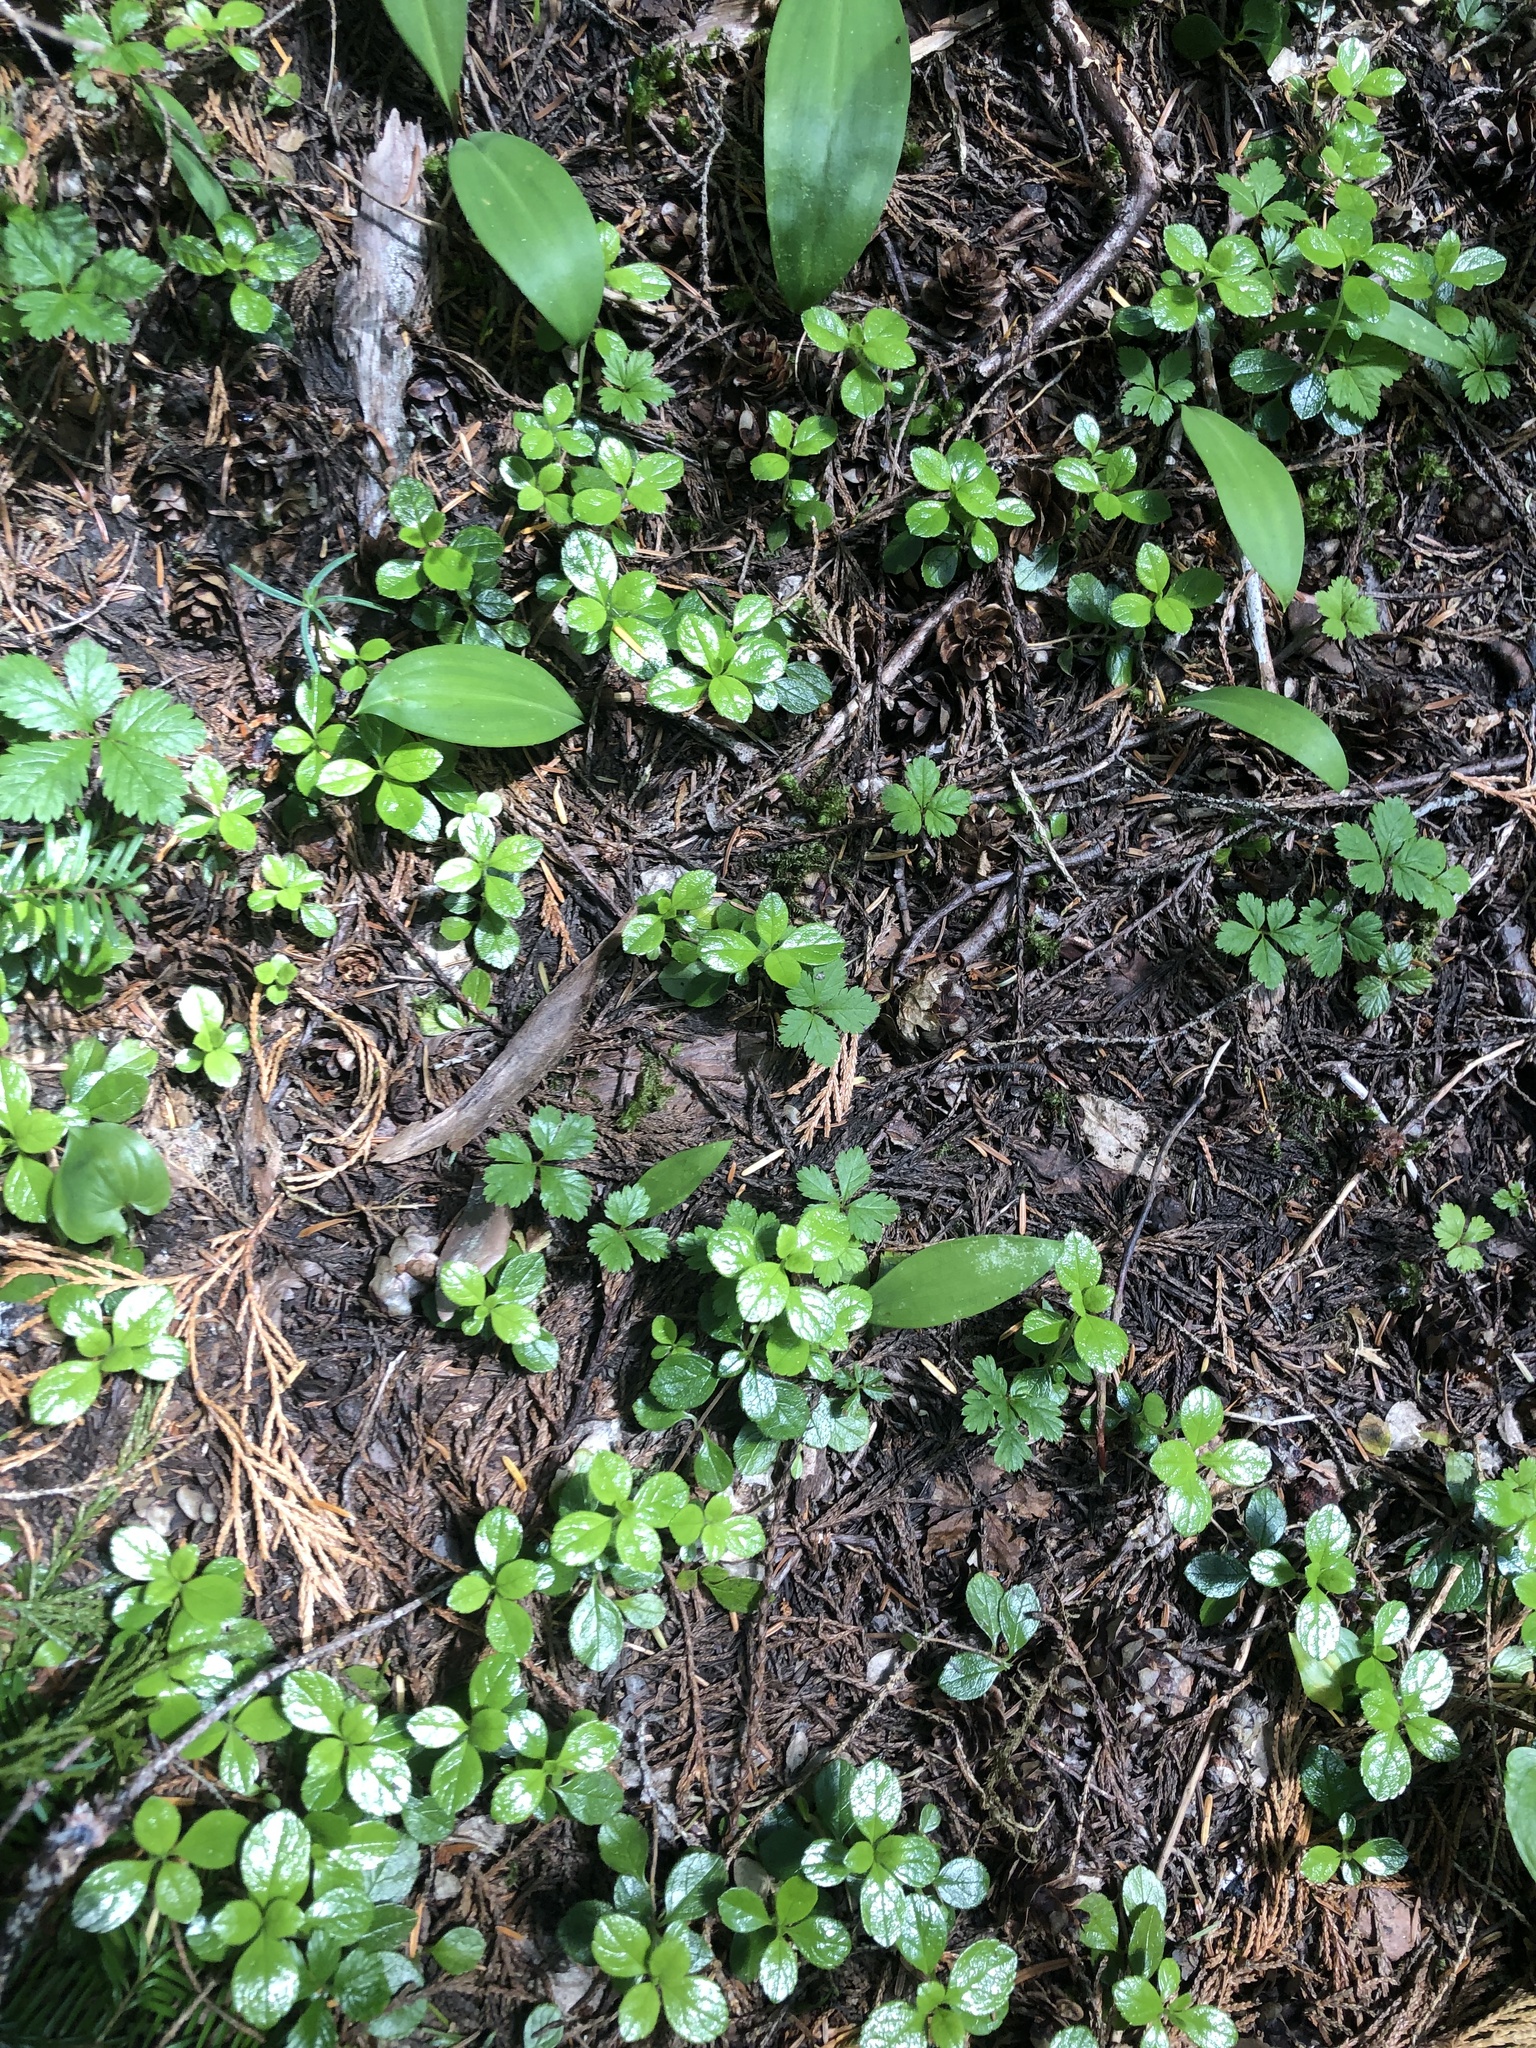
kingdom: Plantae
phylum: Tracheophyta
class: Magnoliopsida
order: Dipsacales
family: Caprifoliaceae
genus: Linnaea
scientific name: Linnaea borealis
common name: Twinflower
